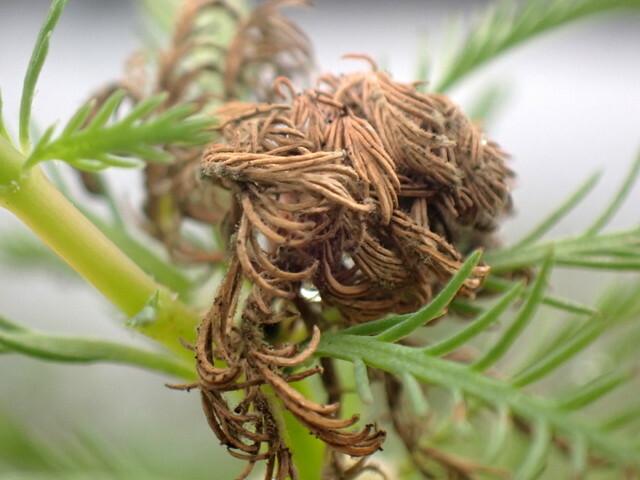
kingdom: Plantae
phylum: Tracheophyta
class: Magnoliopsida
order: Saxifragales
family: Haloragaceae
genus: Myriophyllum
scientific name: Myriophyllum aquaticum
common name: Parrot's feather
